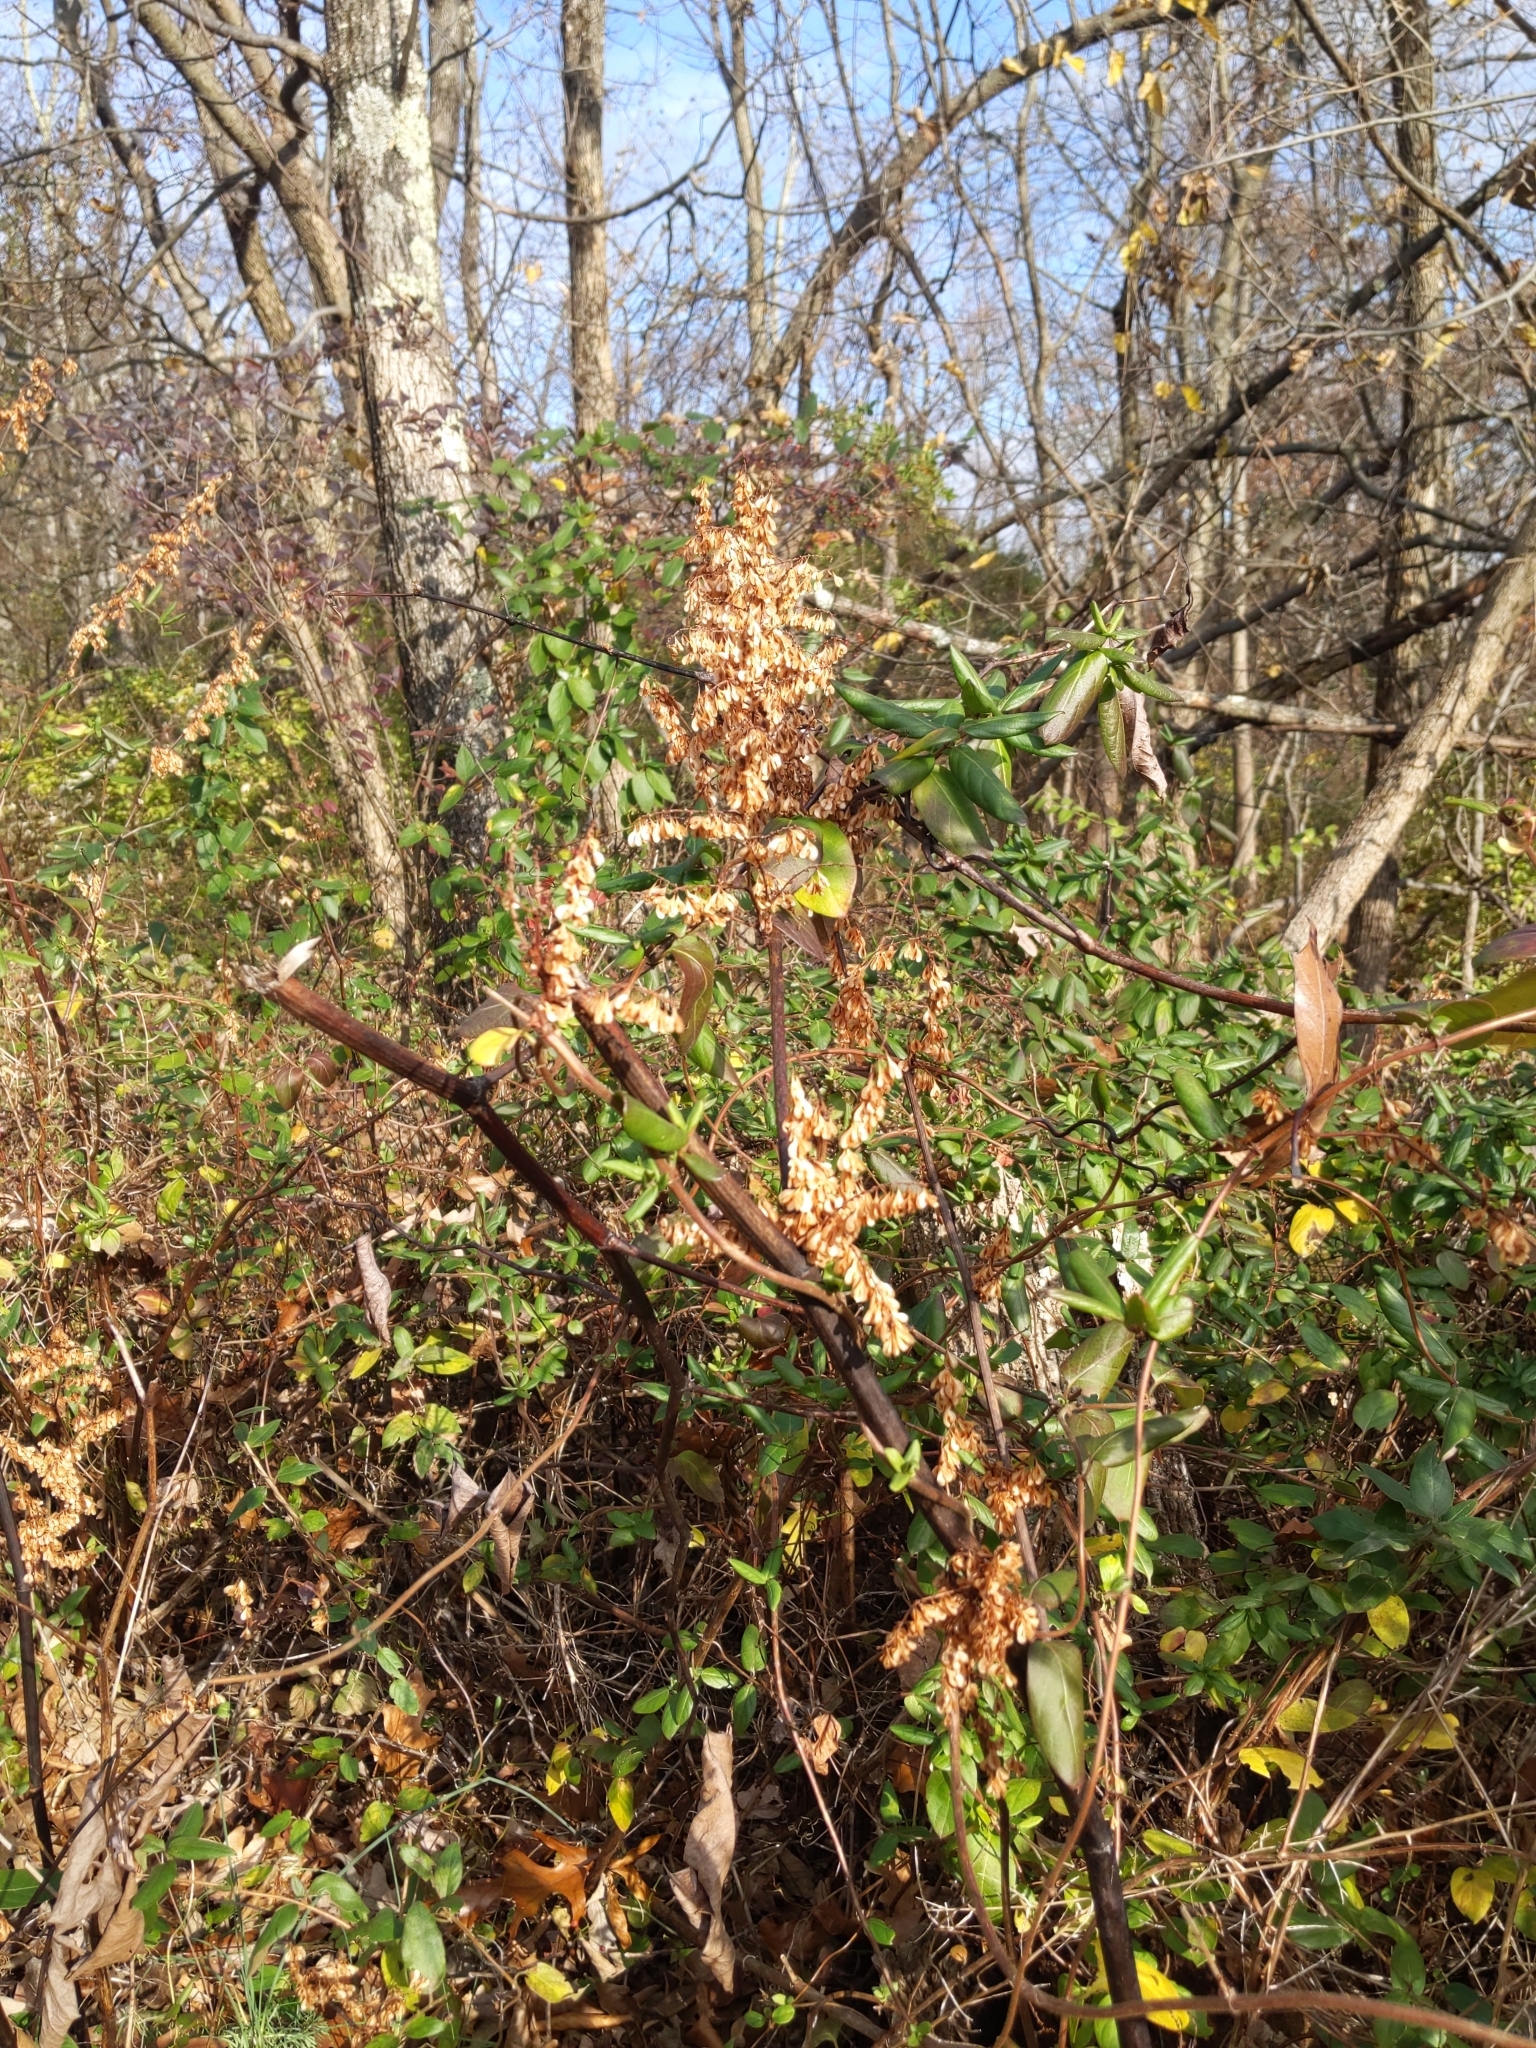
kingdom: Plantae
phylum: Tracheophyta
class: Magnoliopsida
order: Caryophyllales
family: Polygonaceae
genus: Reynoutria
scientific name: Reynoutria japonica
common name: Japanese knotweed
